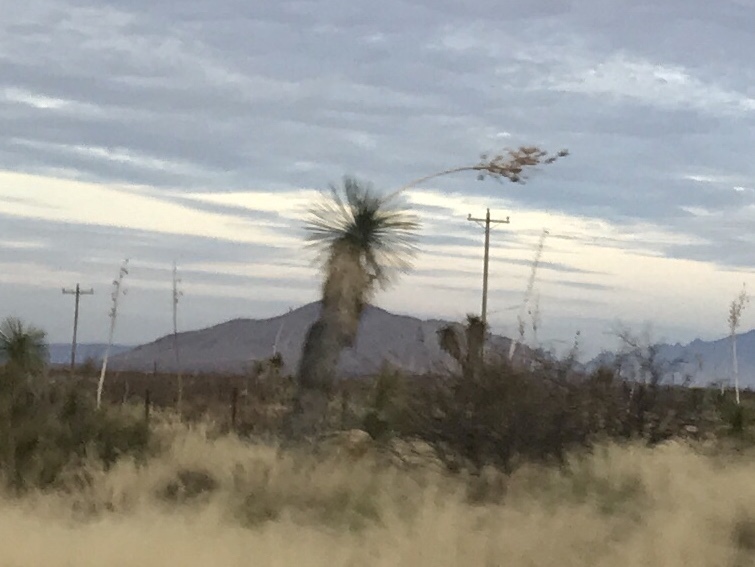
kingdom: Plantae
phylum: Tracheophyta
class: Liliopsida
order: Asparagales
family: Asparagaceae
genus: Yucca
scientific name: Yucca elata
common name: Palmella
